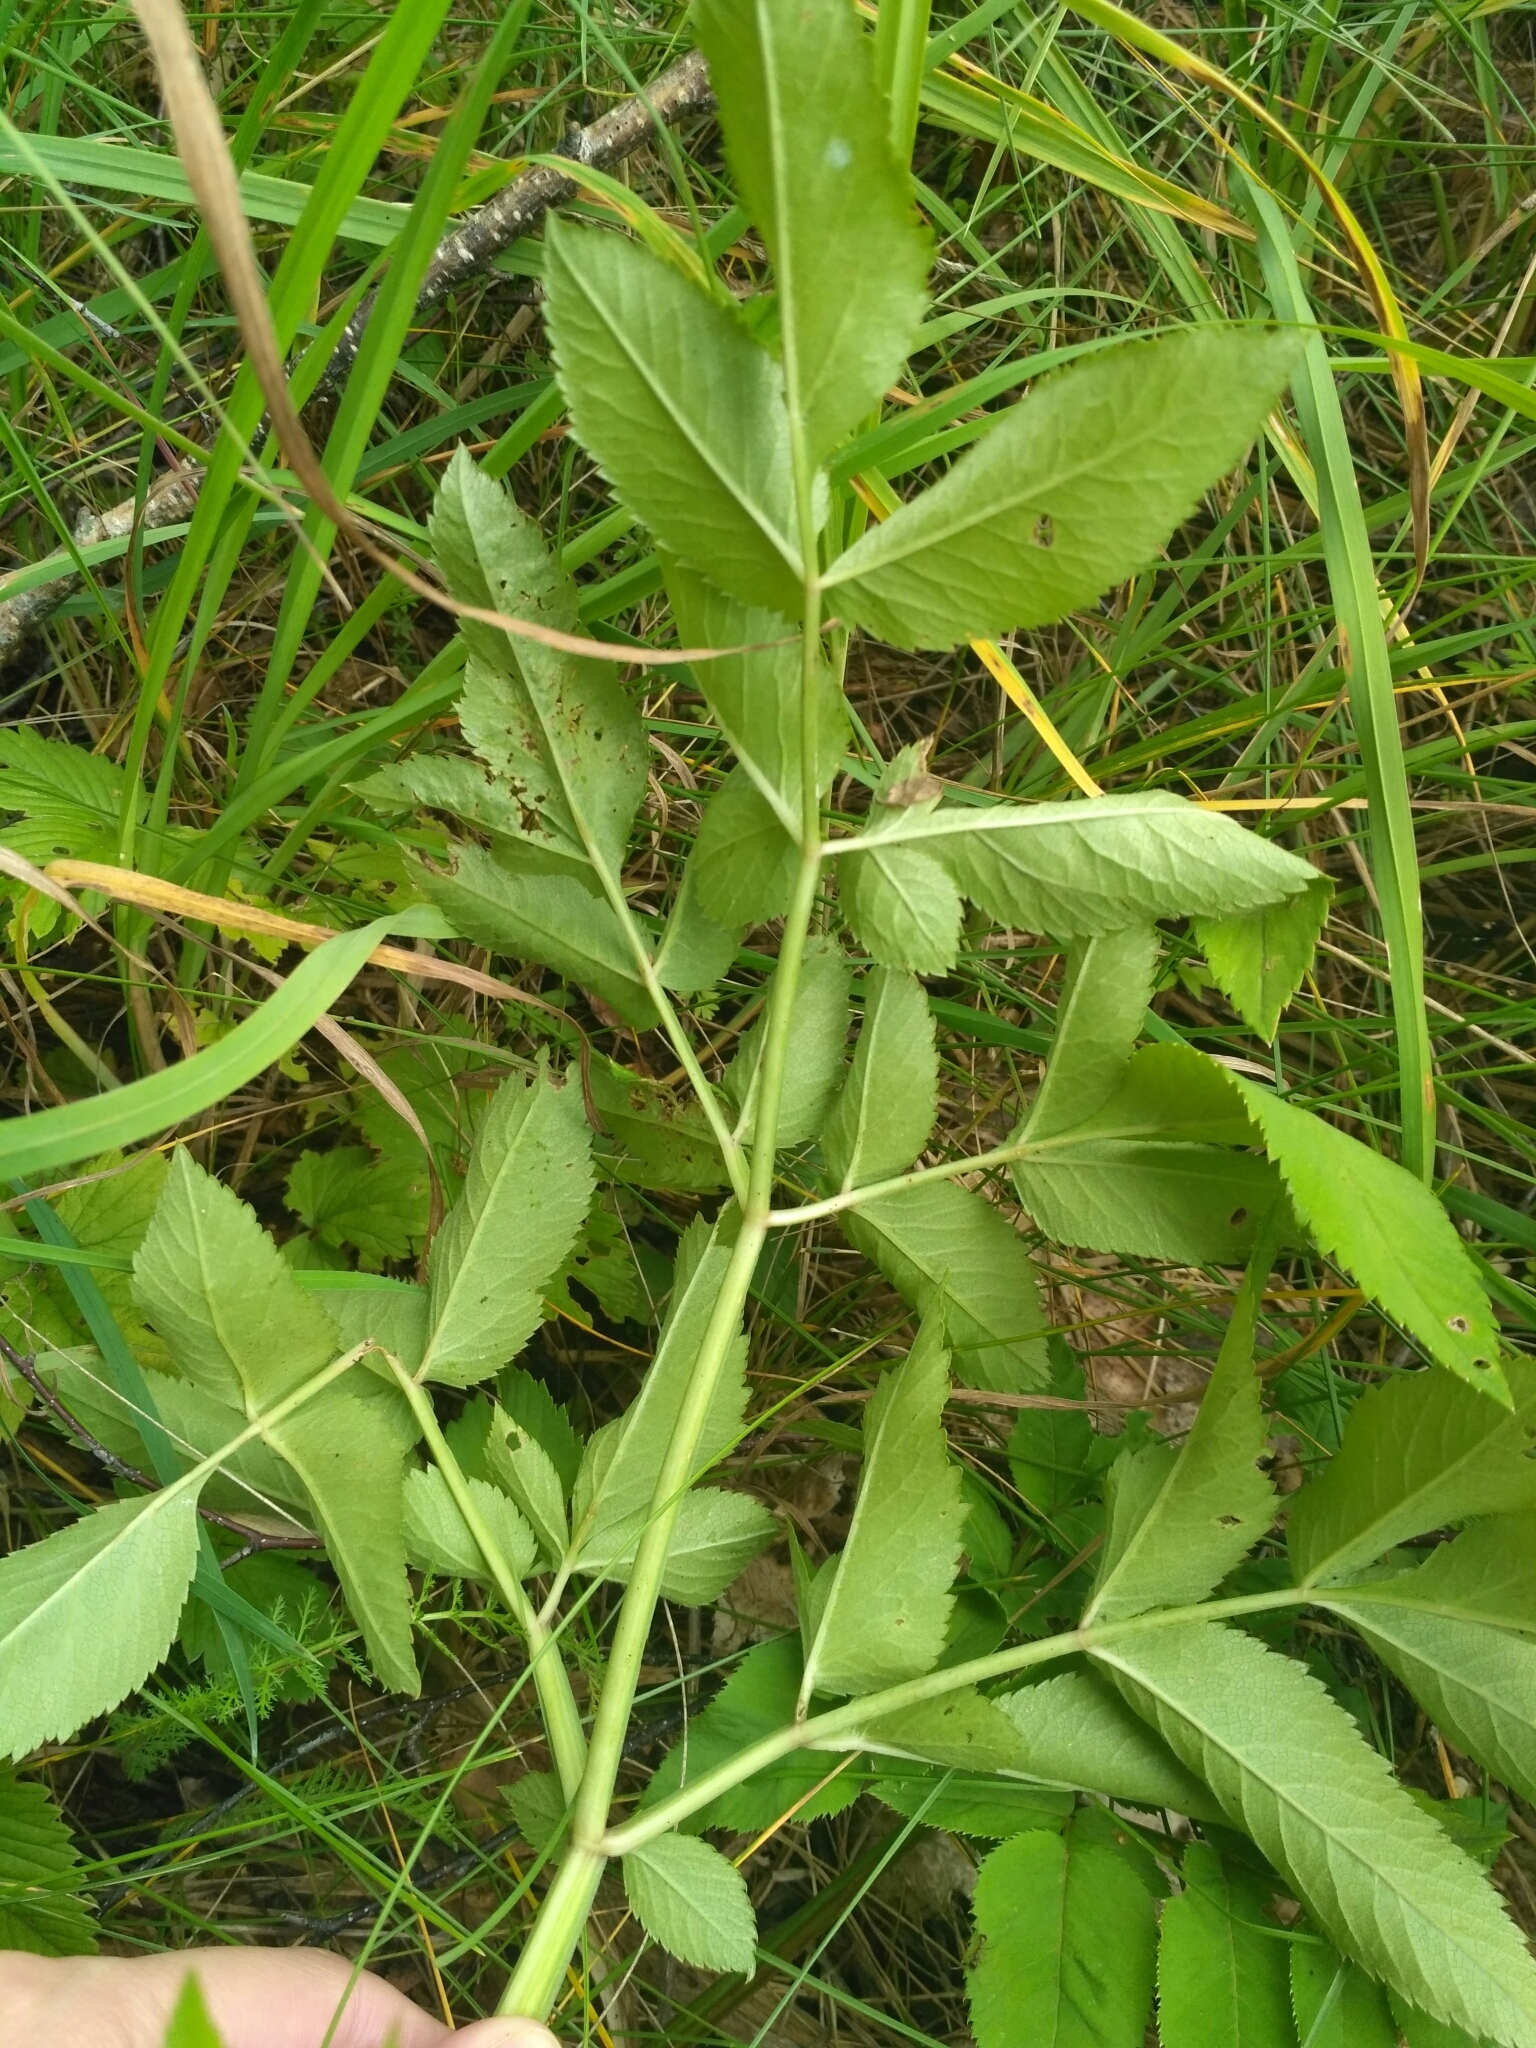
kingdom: Plantae
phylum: Tracheophyta
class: Magnoliopsida
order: Apiales
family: Apiaceae
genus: Angelica
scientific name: Angelica sylvestris
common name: Wild angelica
